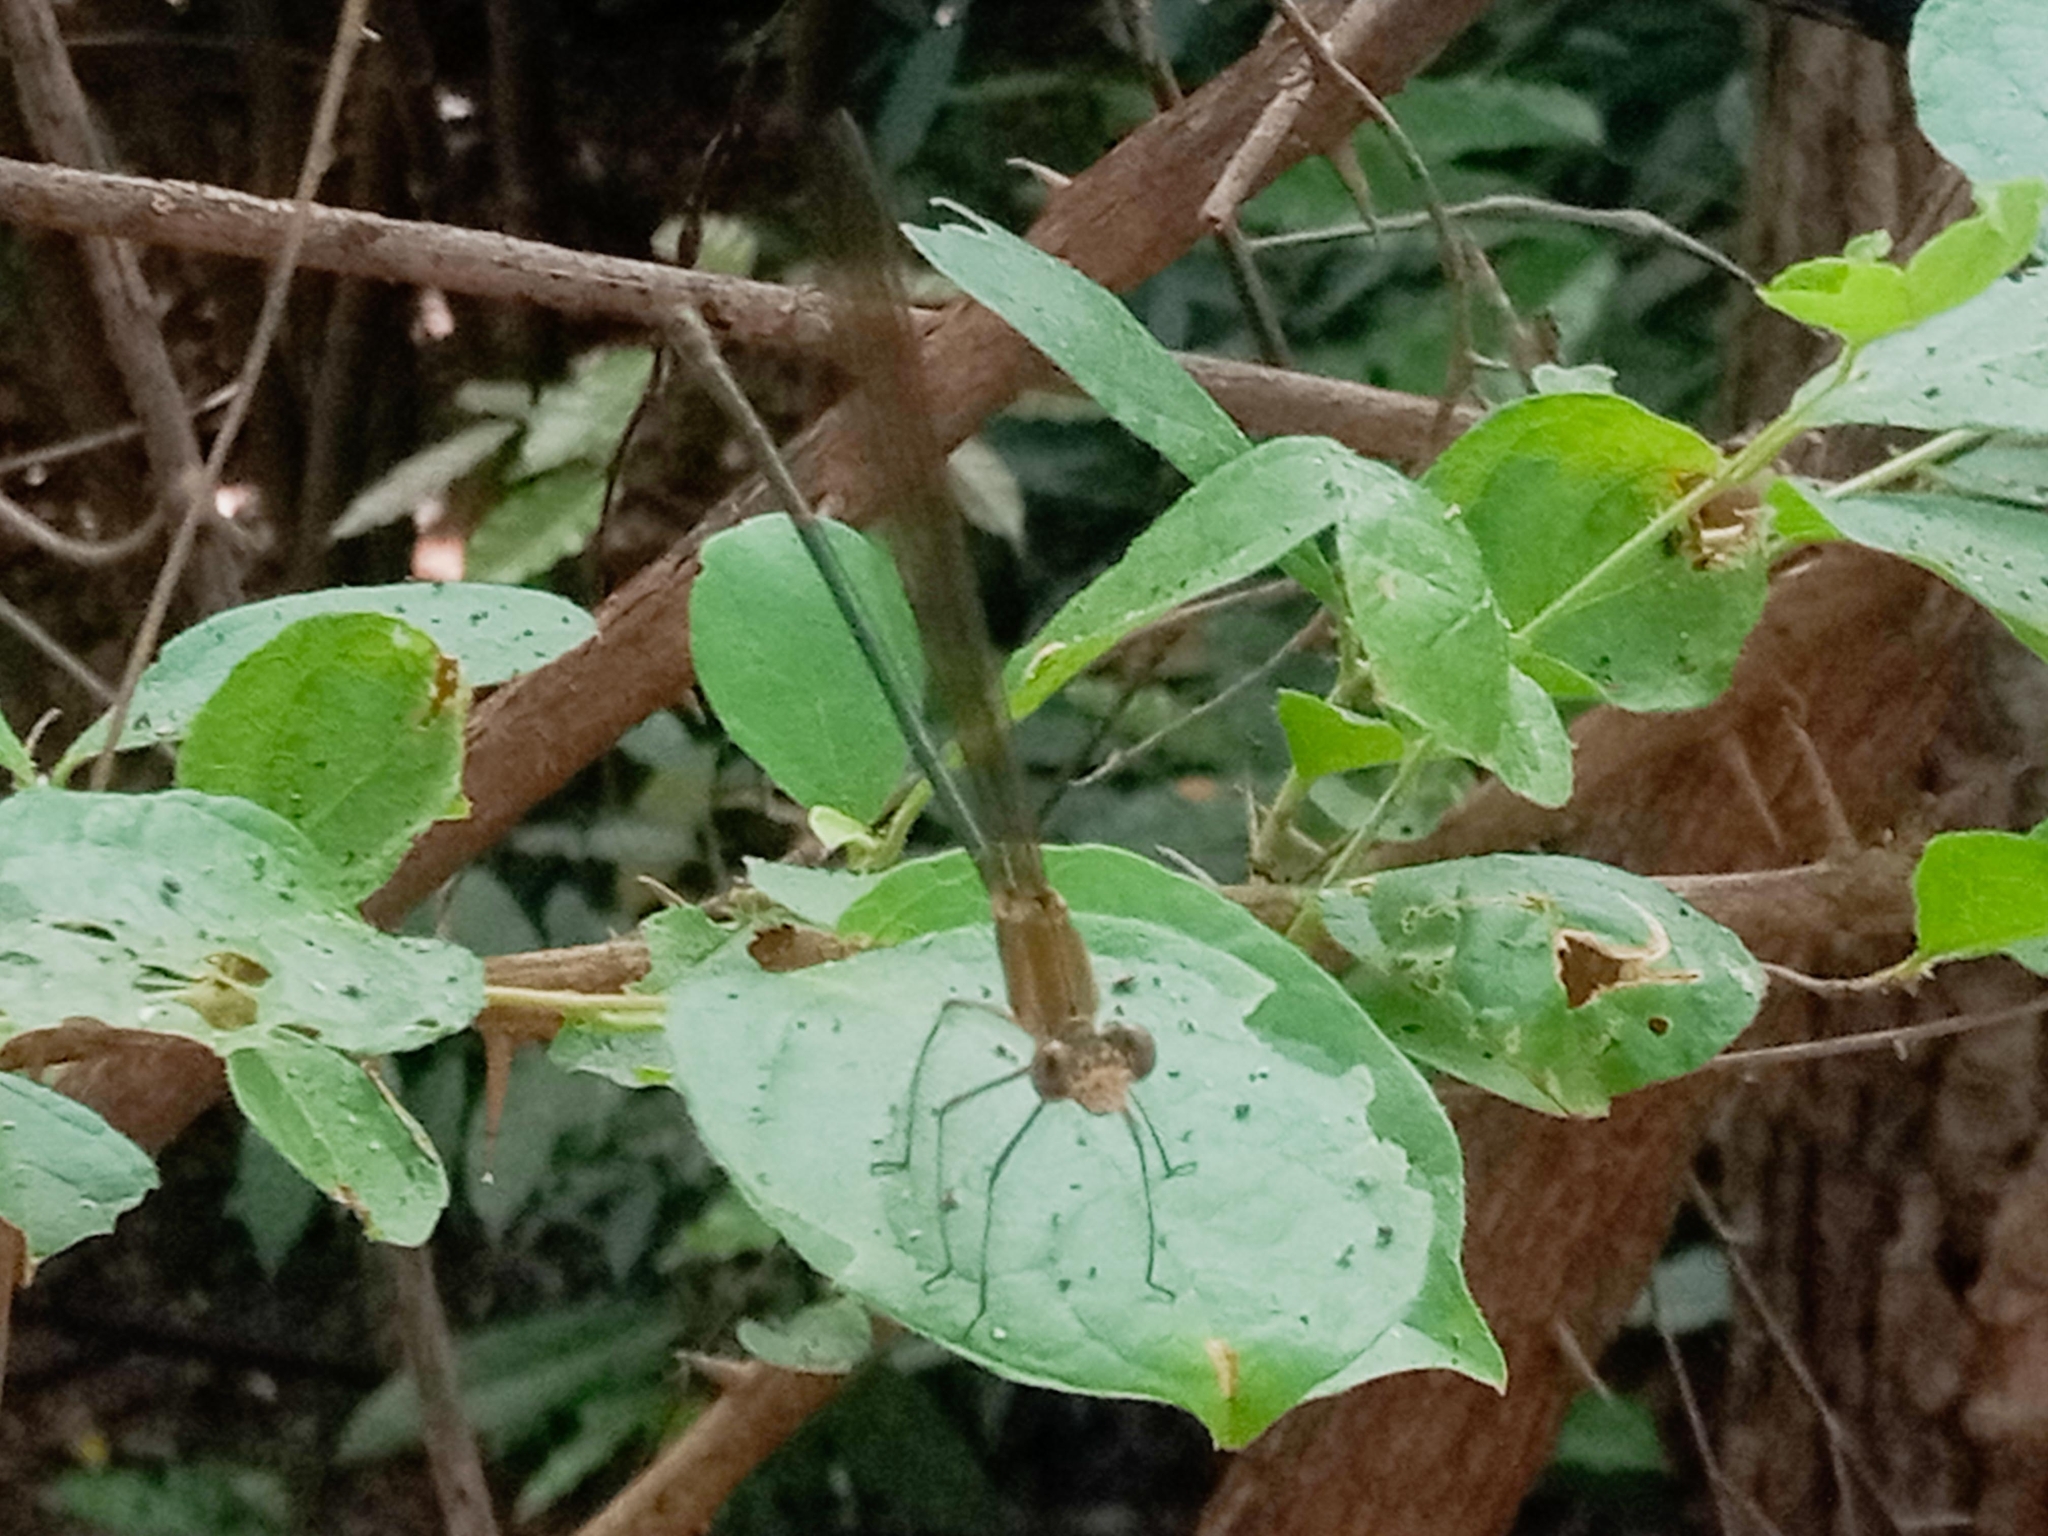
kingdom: Animalia
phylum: Arthropoda
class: Insecta
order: Odonata
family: Calopterygidae
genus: Phaon
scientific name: Phaon iridipennis
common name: Glistening demoiselle
